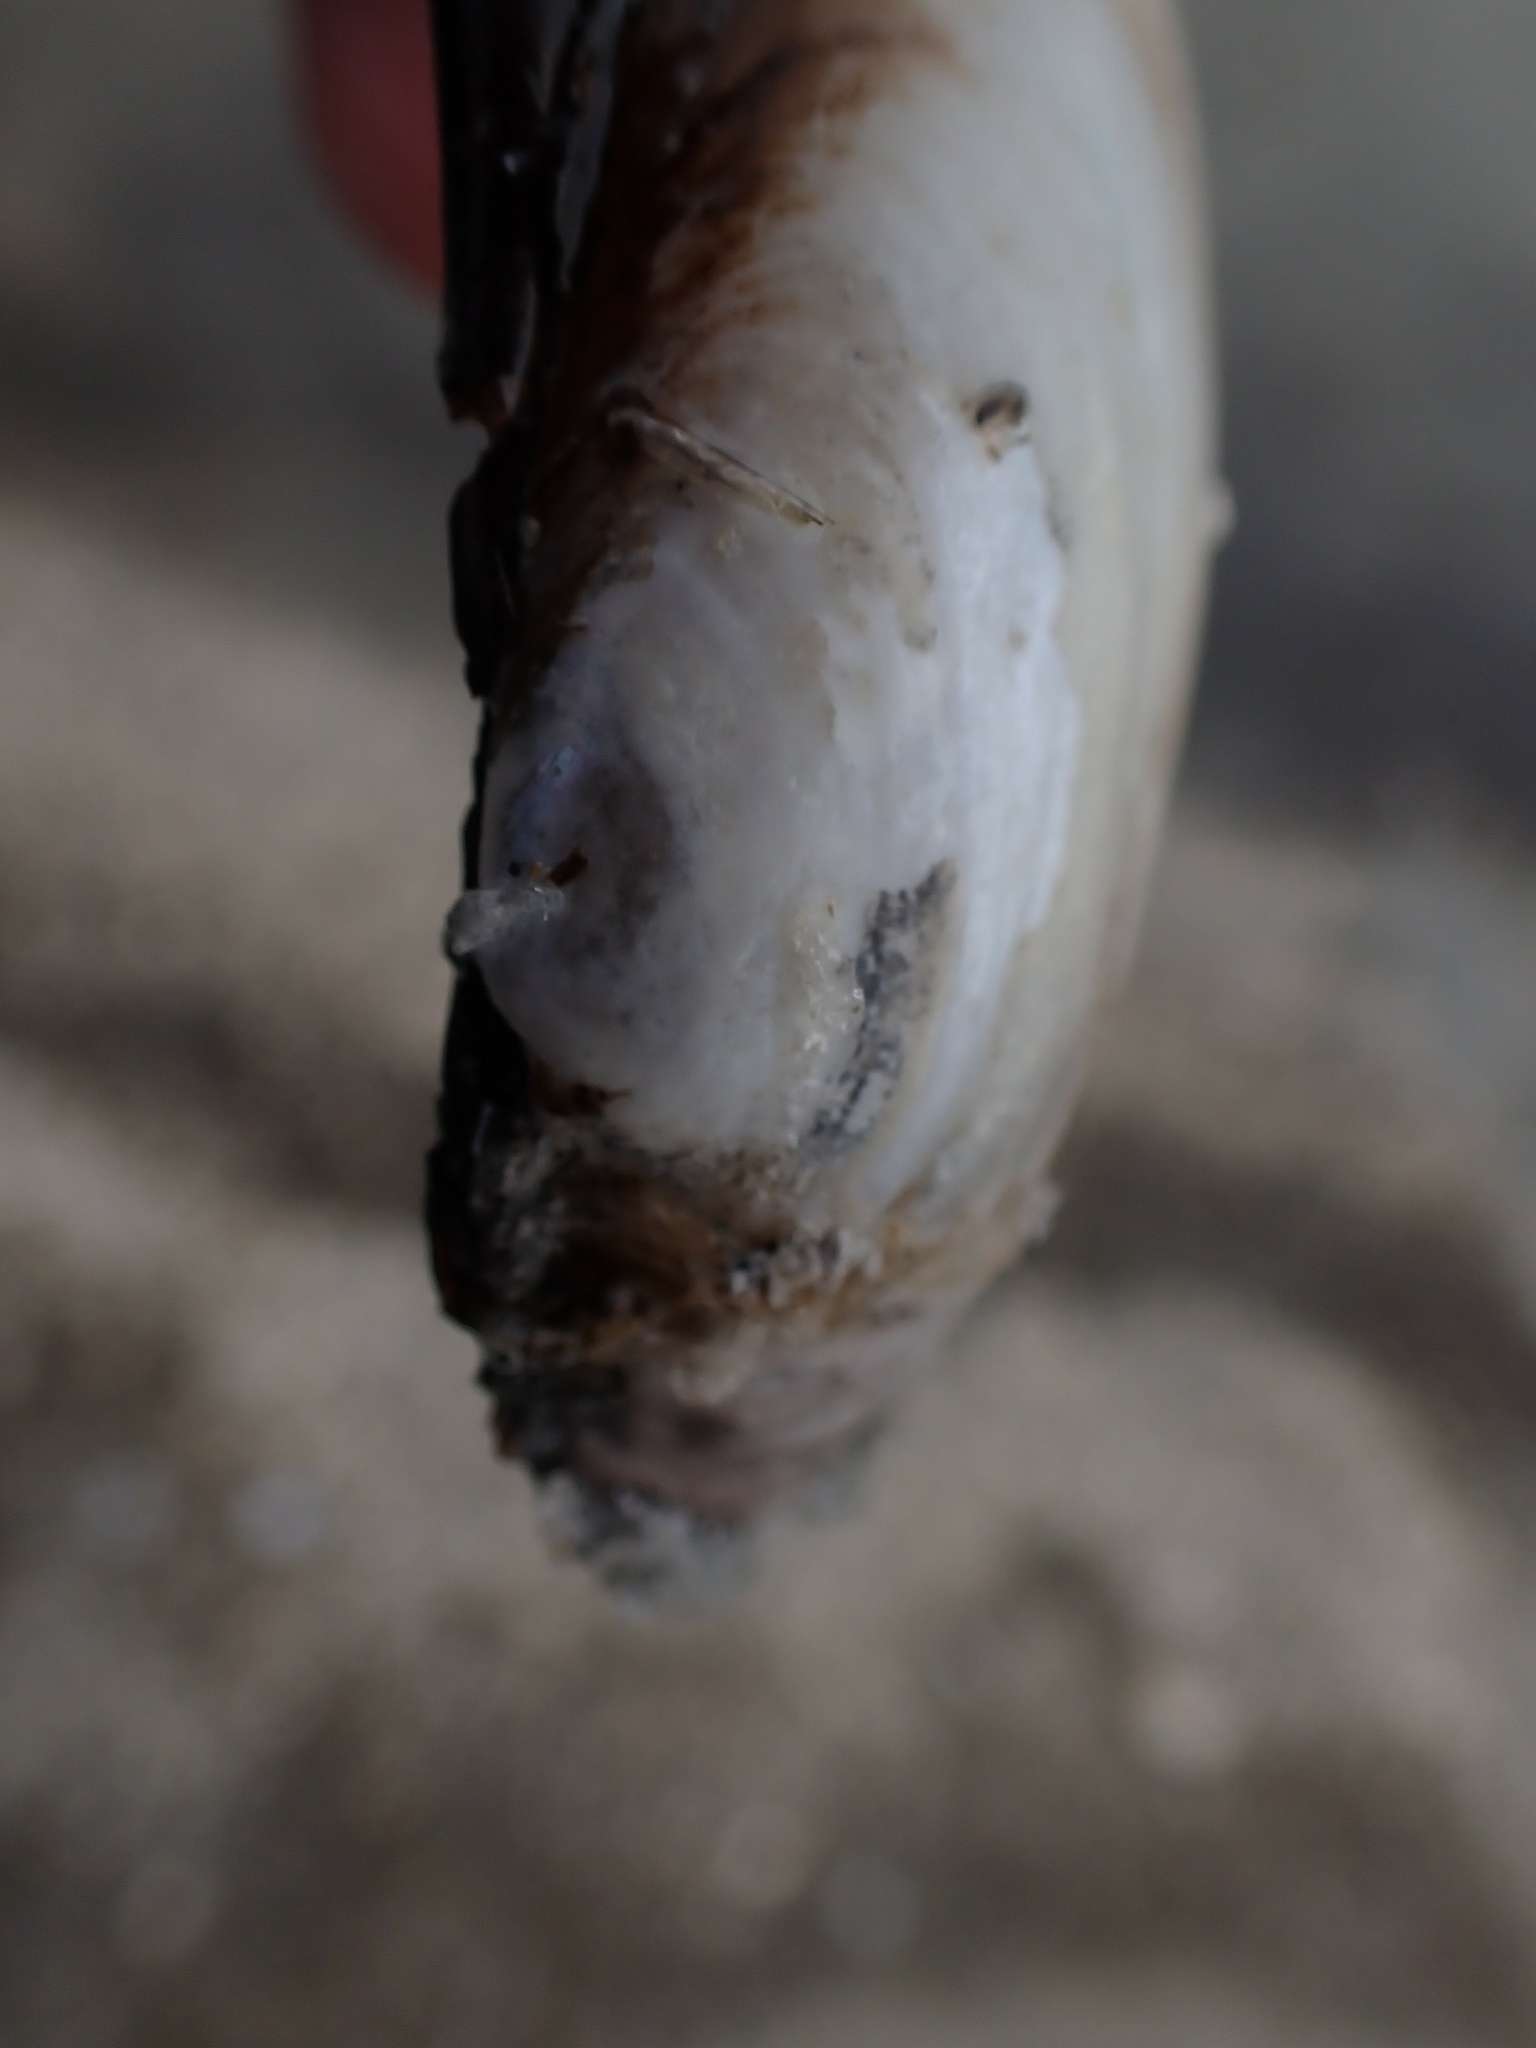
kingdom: Animalia
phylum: Mollusca
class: Bivalvia
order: Unionida
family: Unionidae
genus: Lampsilis
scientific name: Lampsilis siliquoidea
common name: Fatmucket
